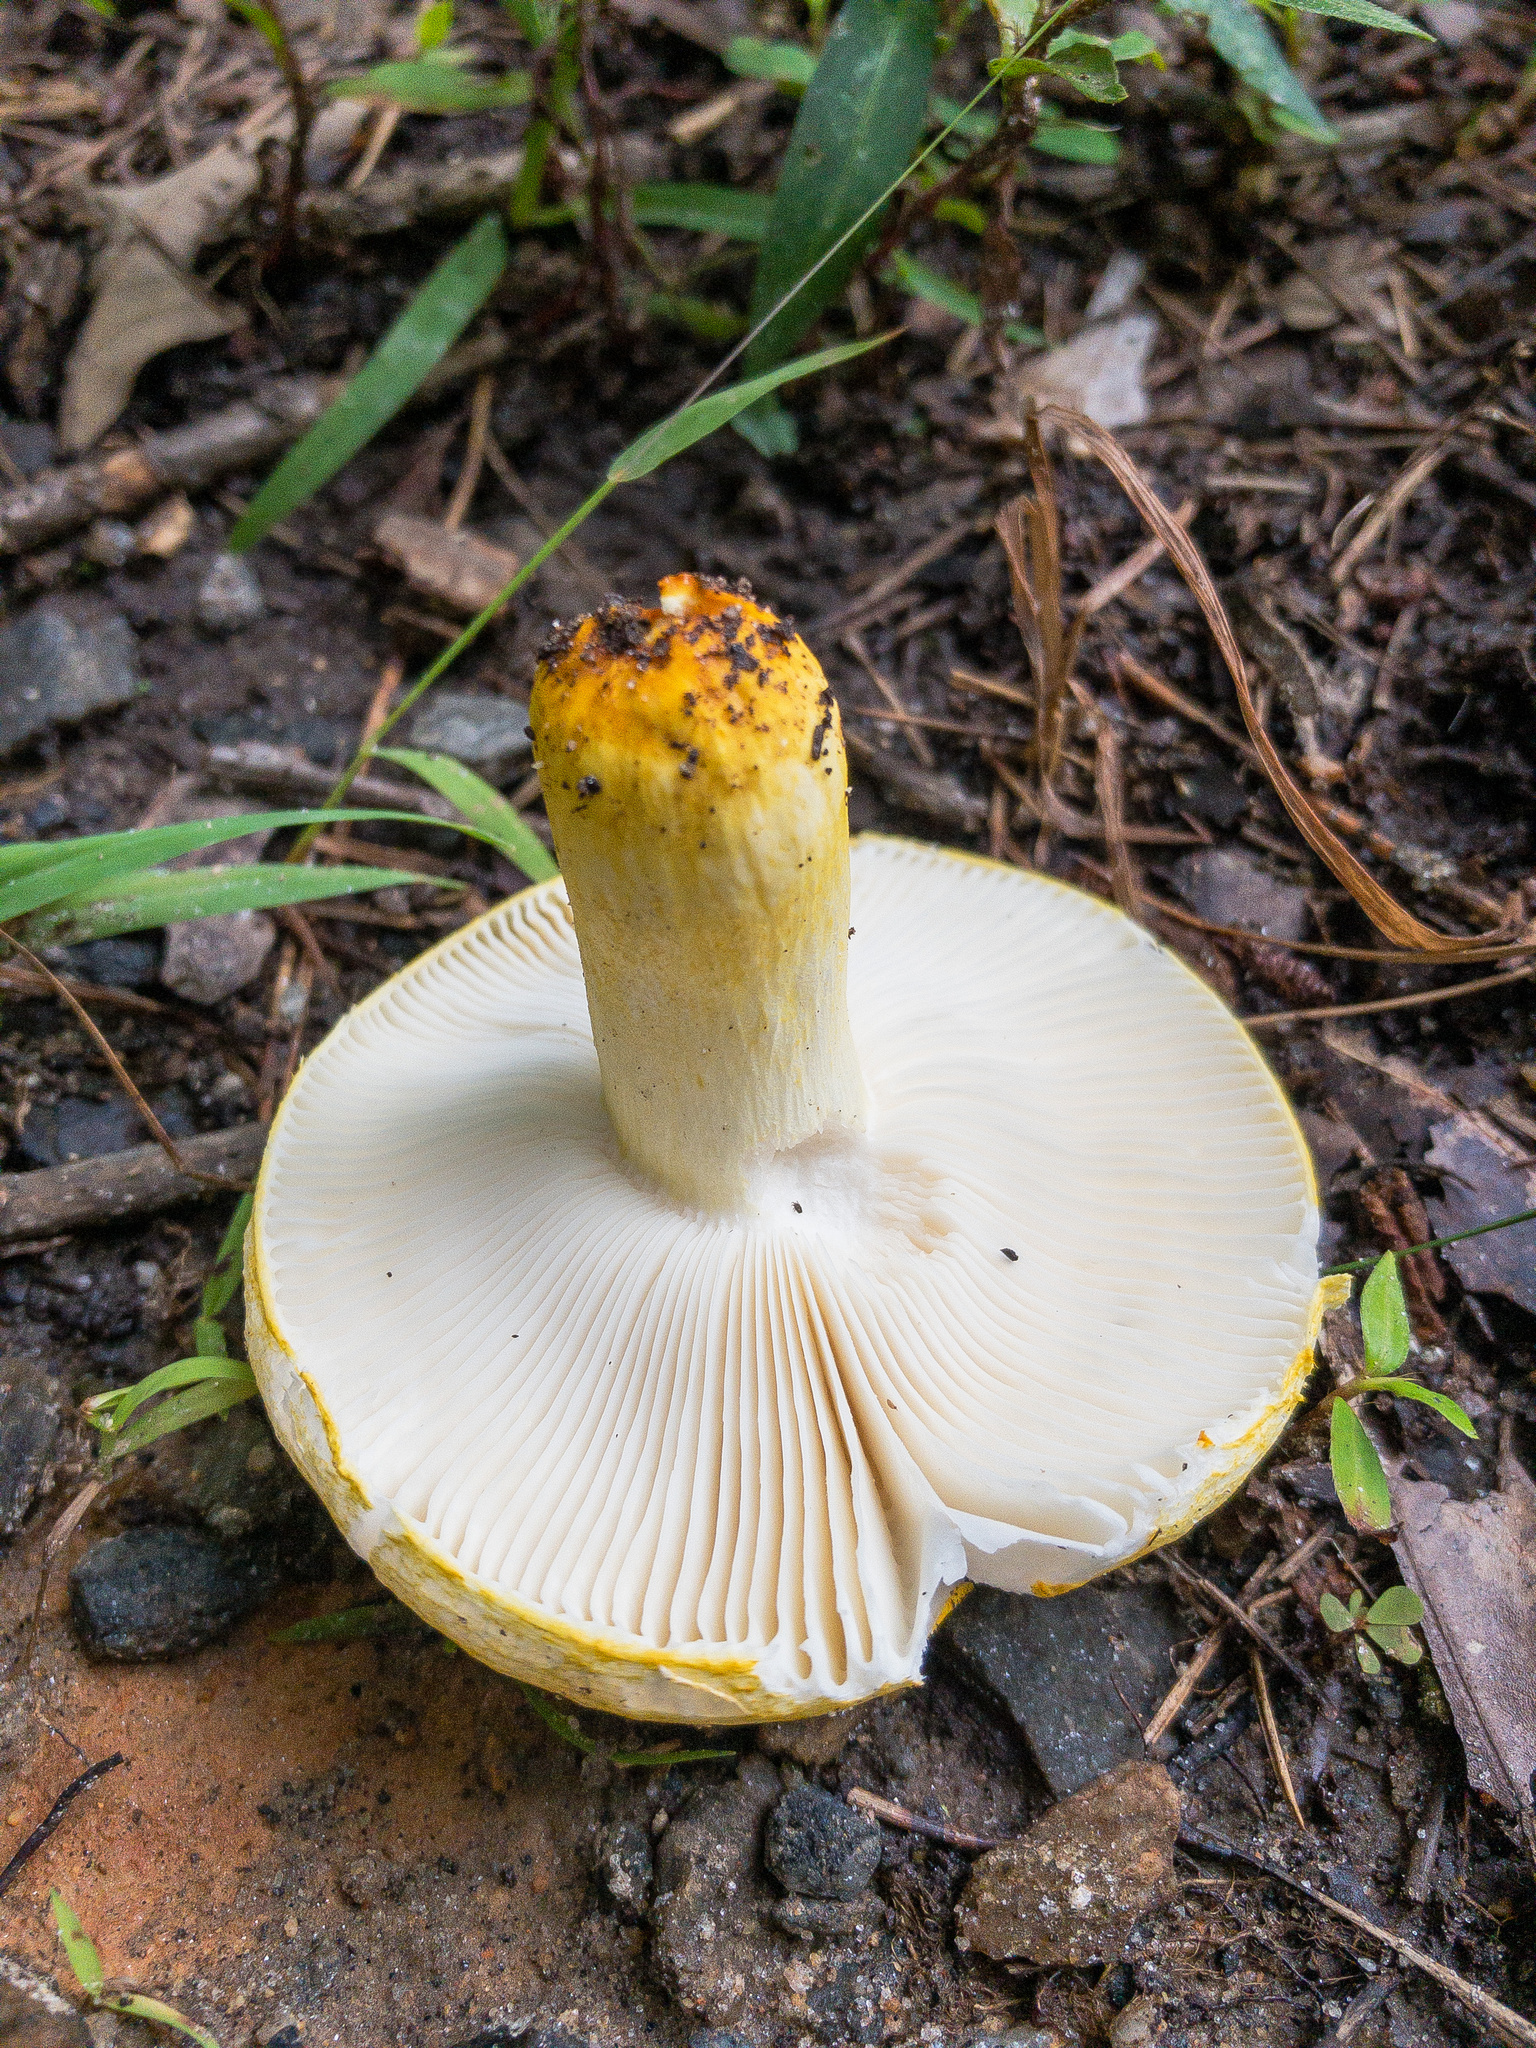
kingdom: Fungi
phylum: Basidiomycota
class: Agaricomycetes
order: Russulales
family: Russulaceae
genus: Russula
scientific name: Russula flavida
